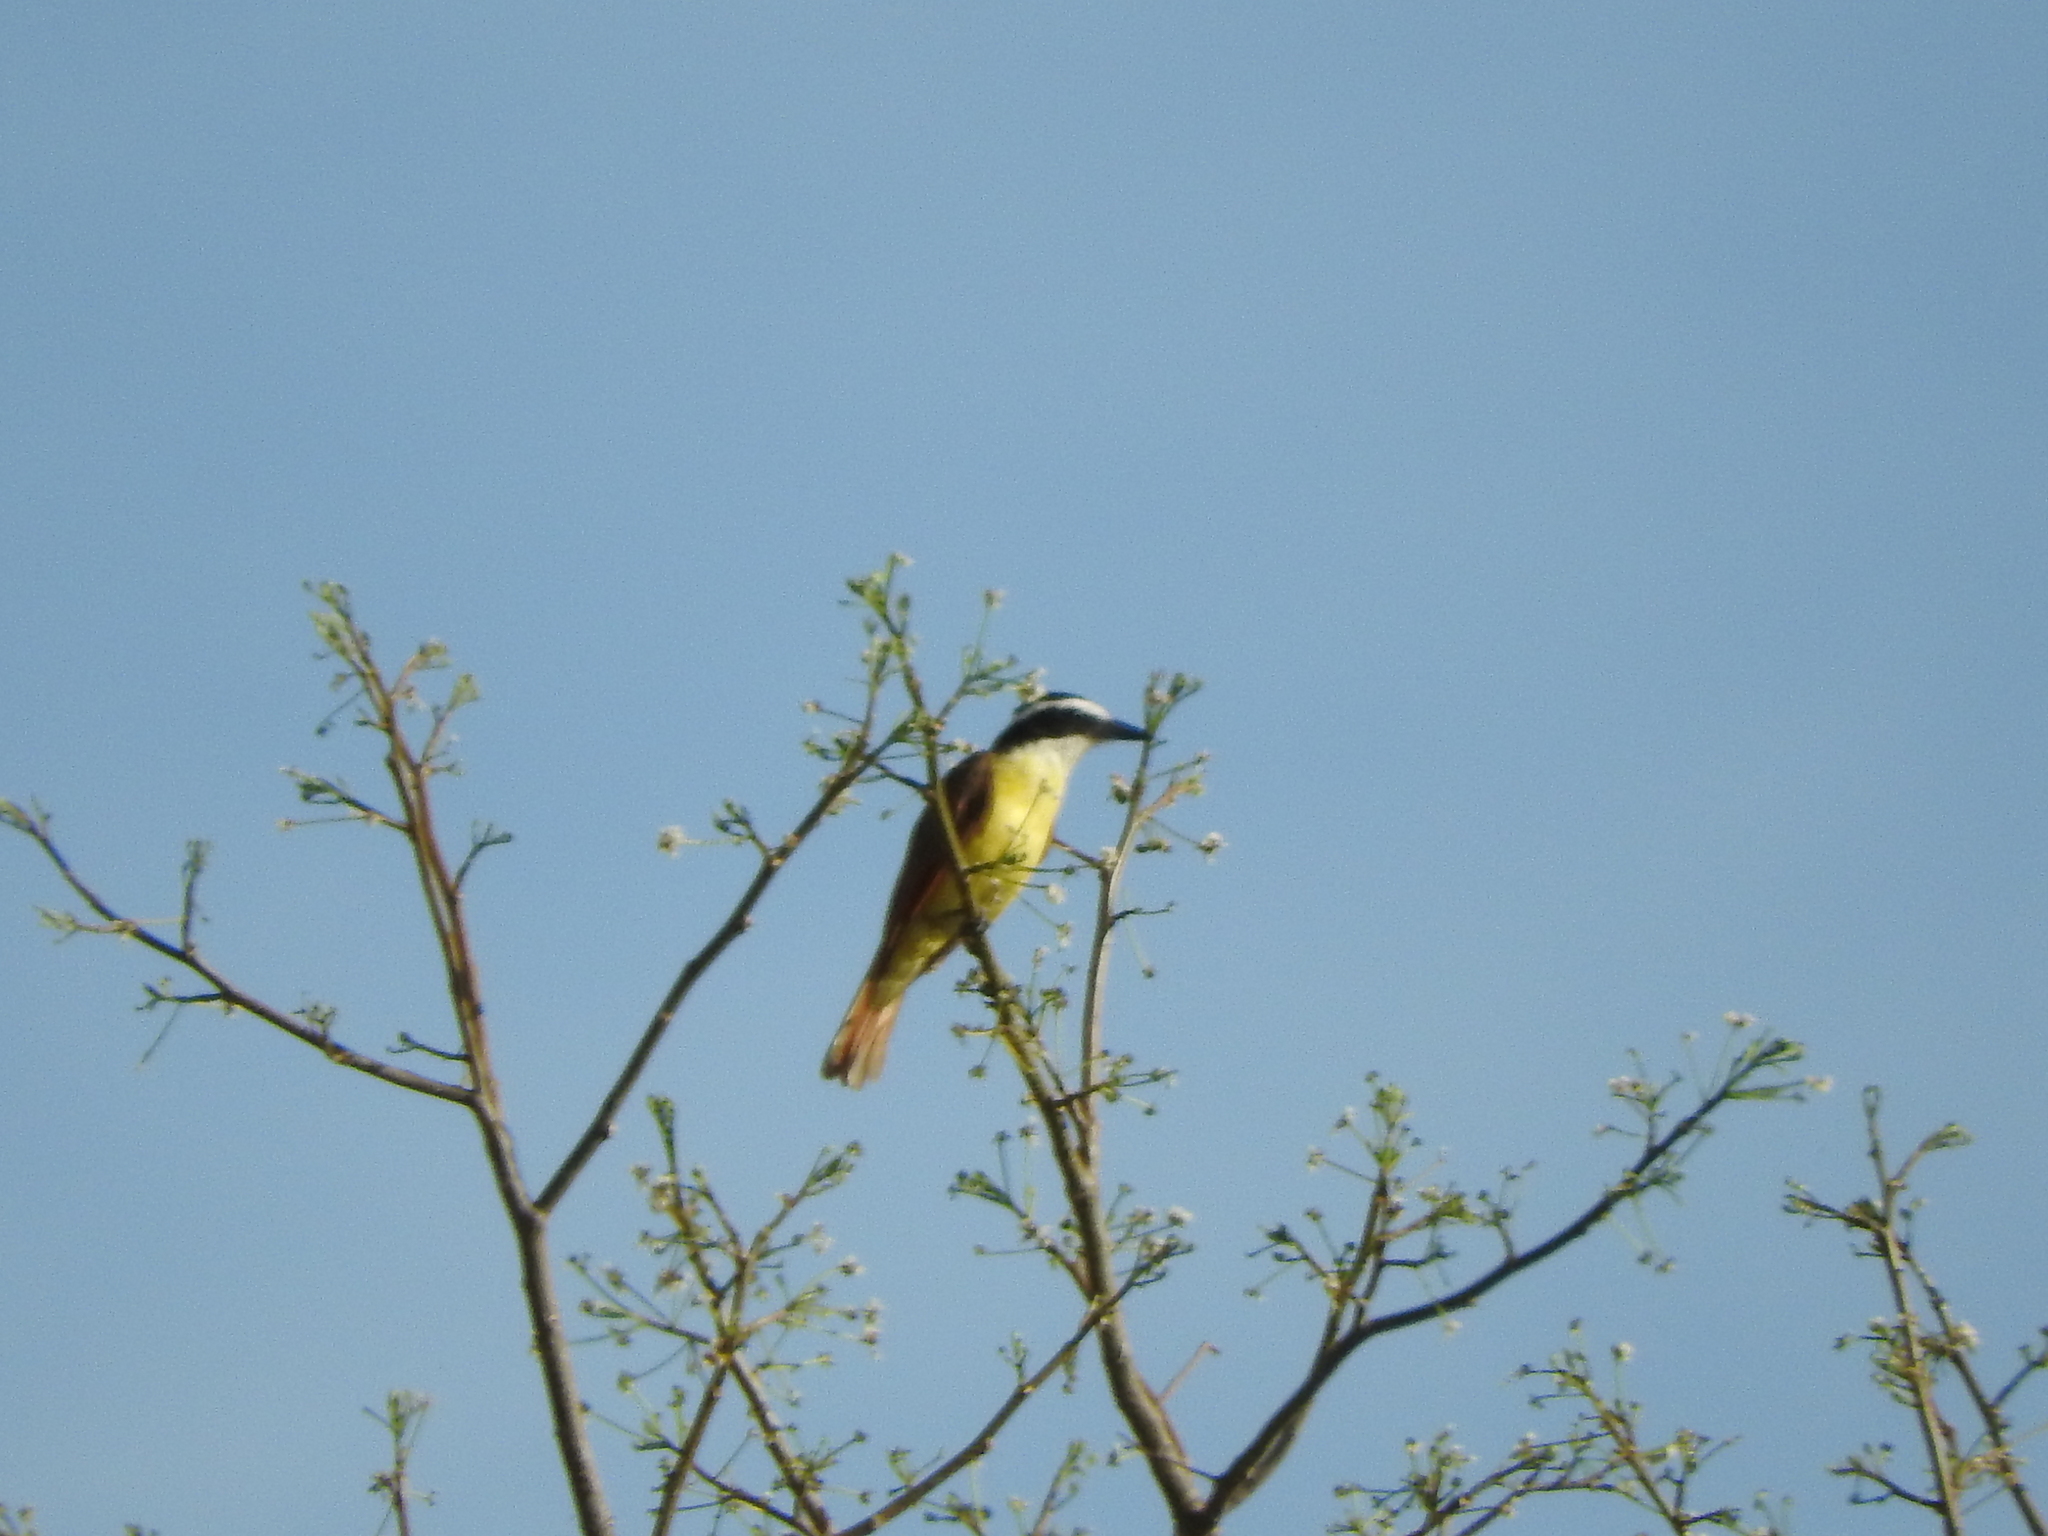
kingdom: Animalia
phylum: Chordata
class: Aves
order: Passeriformes
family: Tyrannidae
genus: Pitangus
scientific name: Pitangus sulphuratus
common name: Great kiskadee
